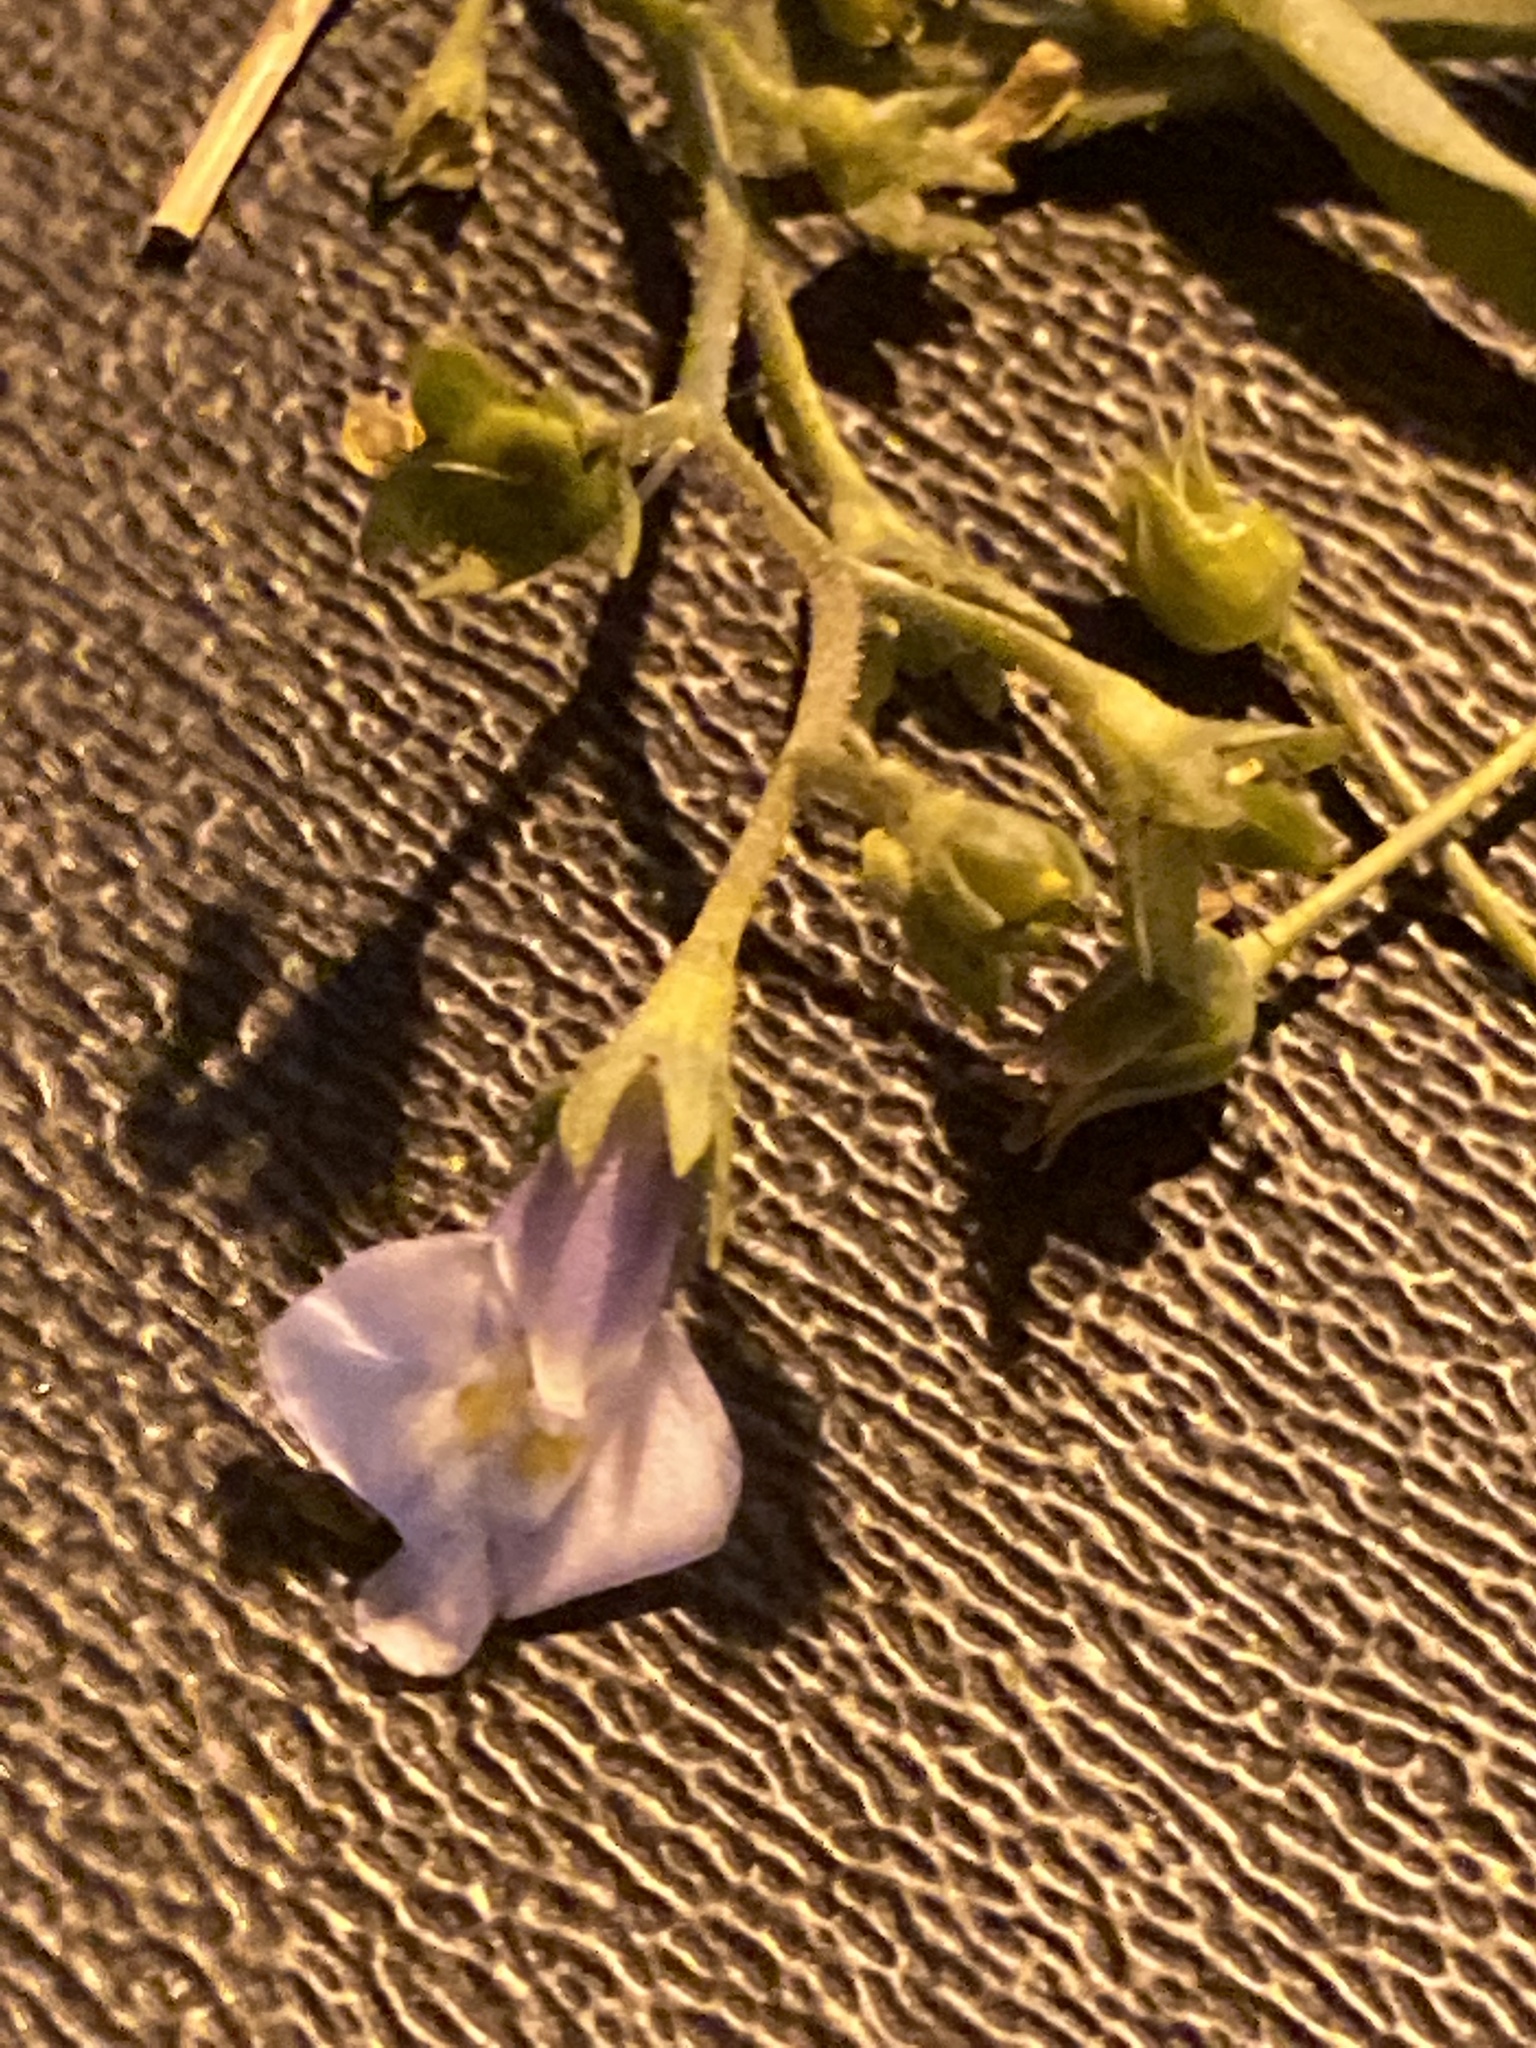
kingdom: Plantae
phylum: Tracheophyta
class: Magnoliopsida
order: Lamiales
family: Mazaceae
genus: Mazus
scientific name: Mazus pumilus
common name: Japanese mazus
